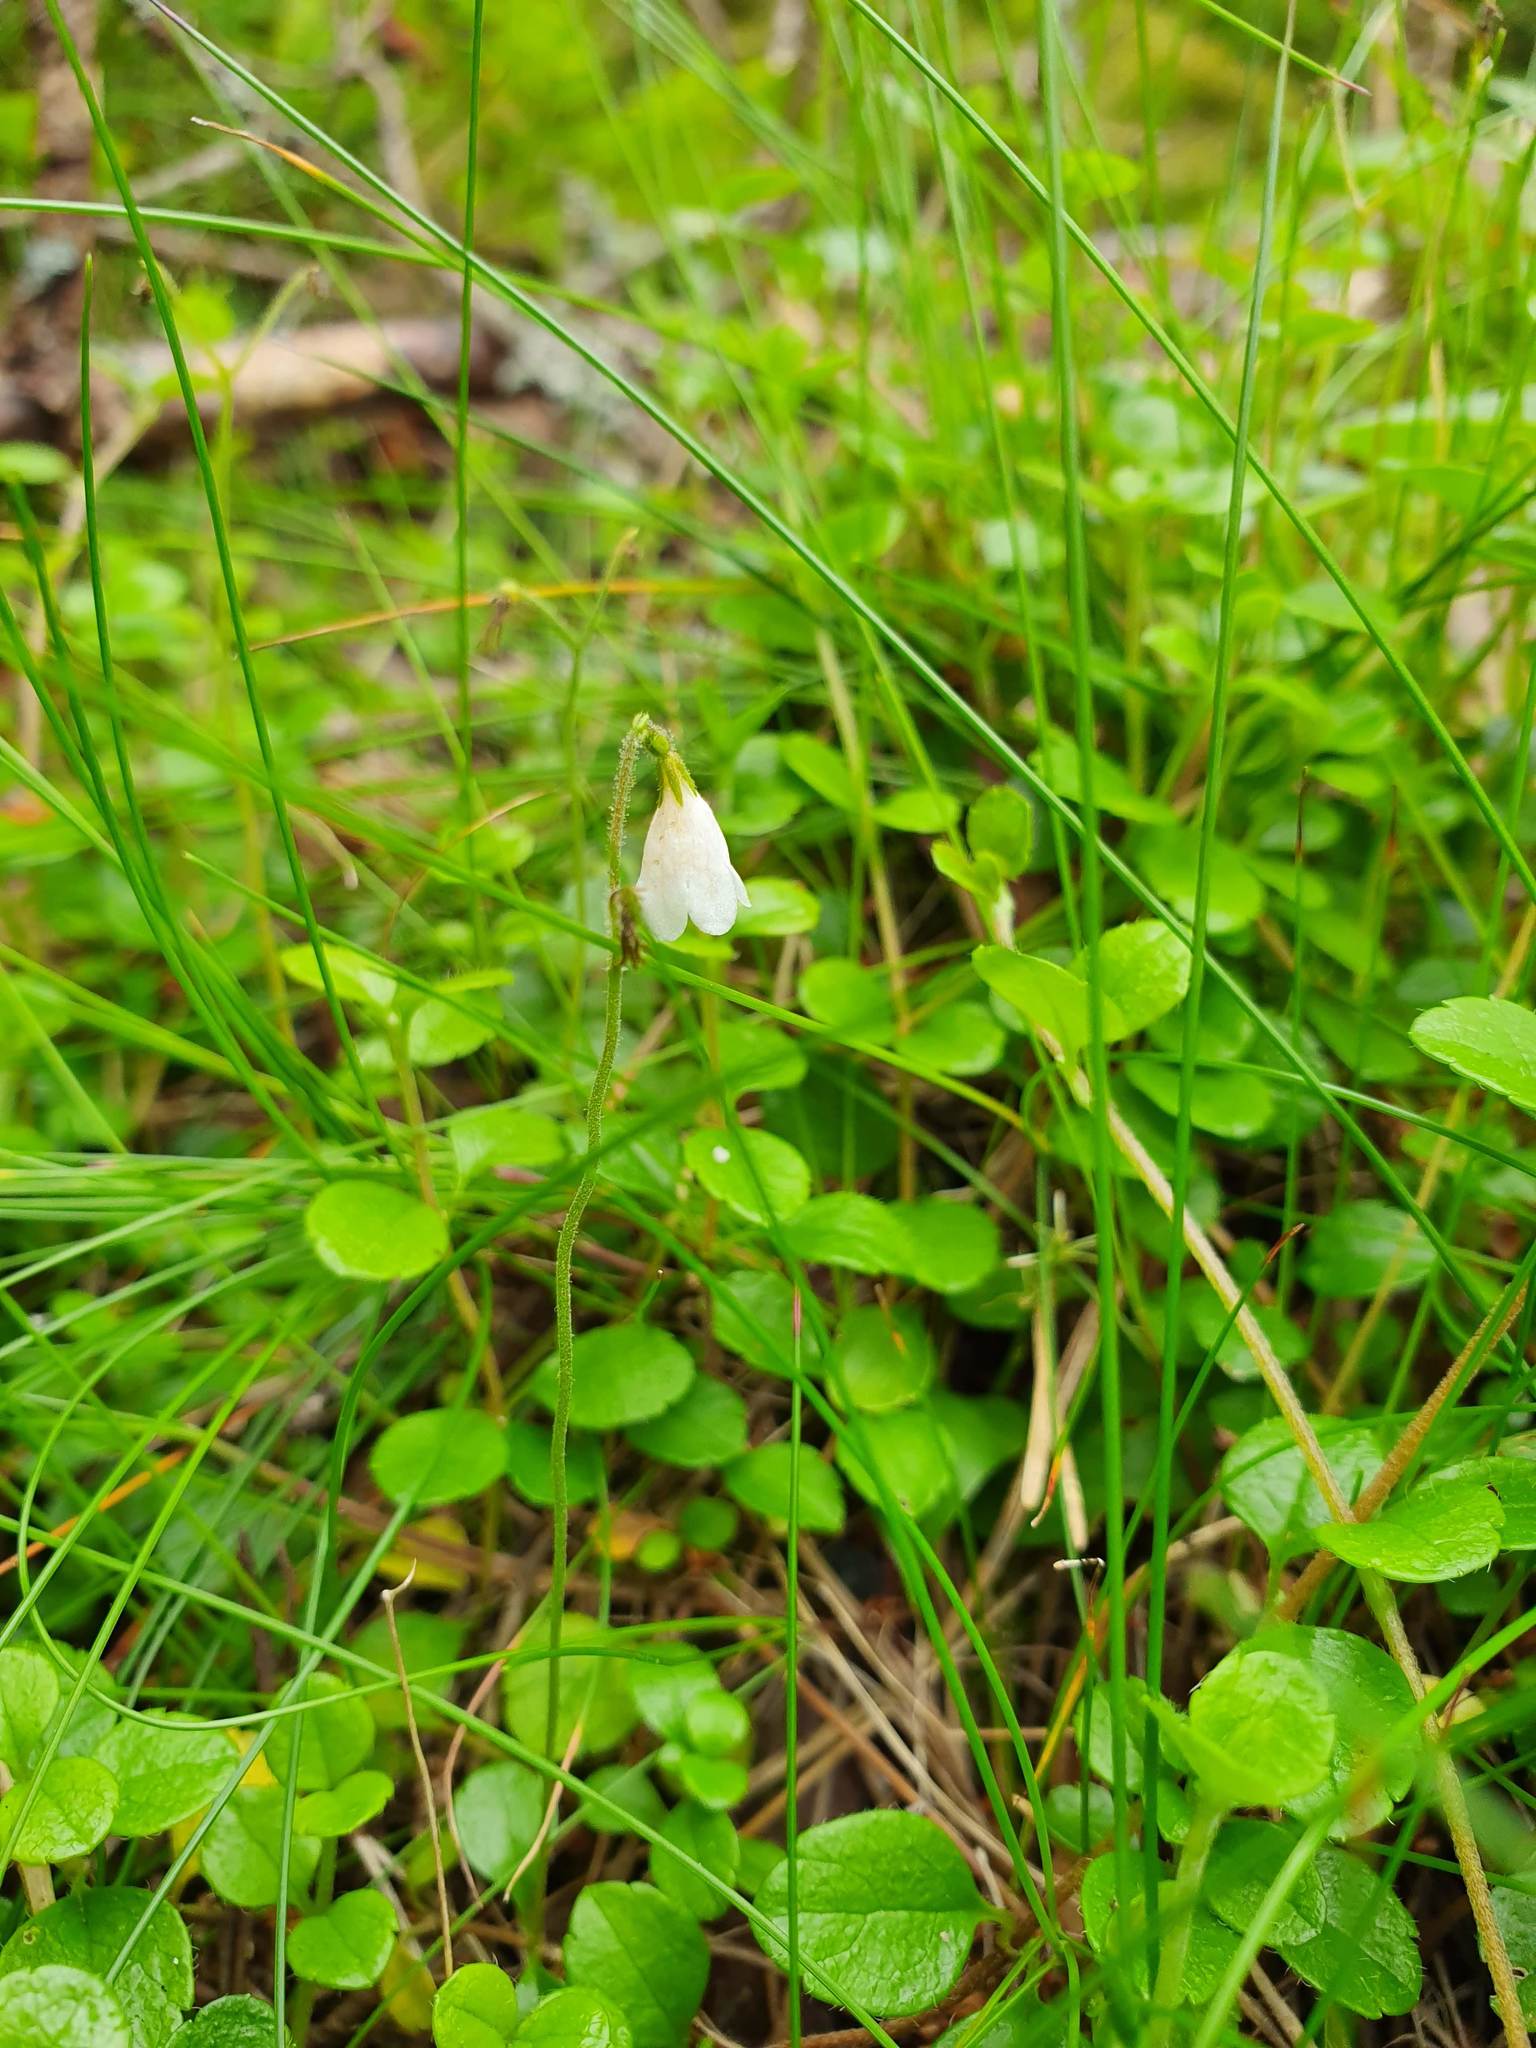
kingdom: Plantae
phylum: Tracheophyta
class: Magnoliopsida
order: Dipsacales
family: Caprifoliaceae
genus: Linnaea
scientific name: Linnaea borealis
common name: Twinflower
